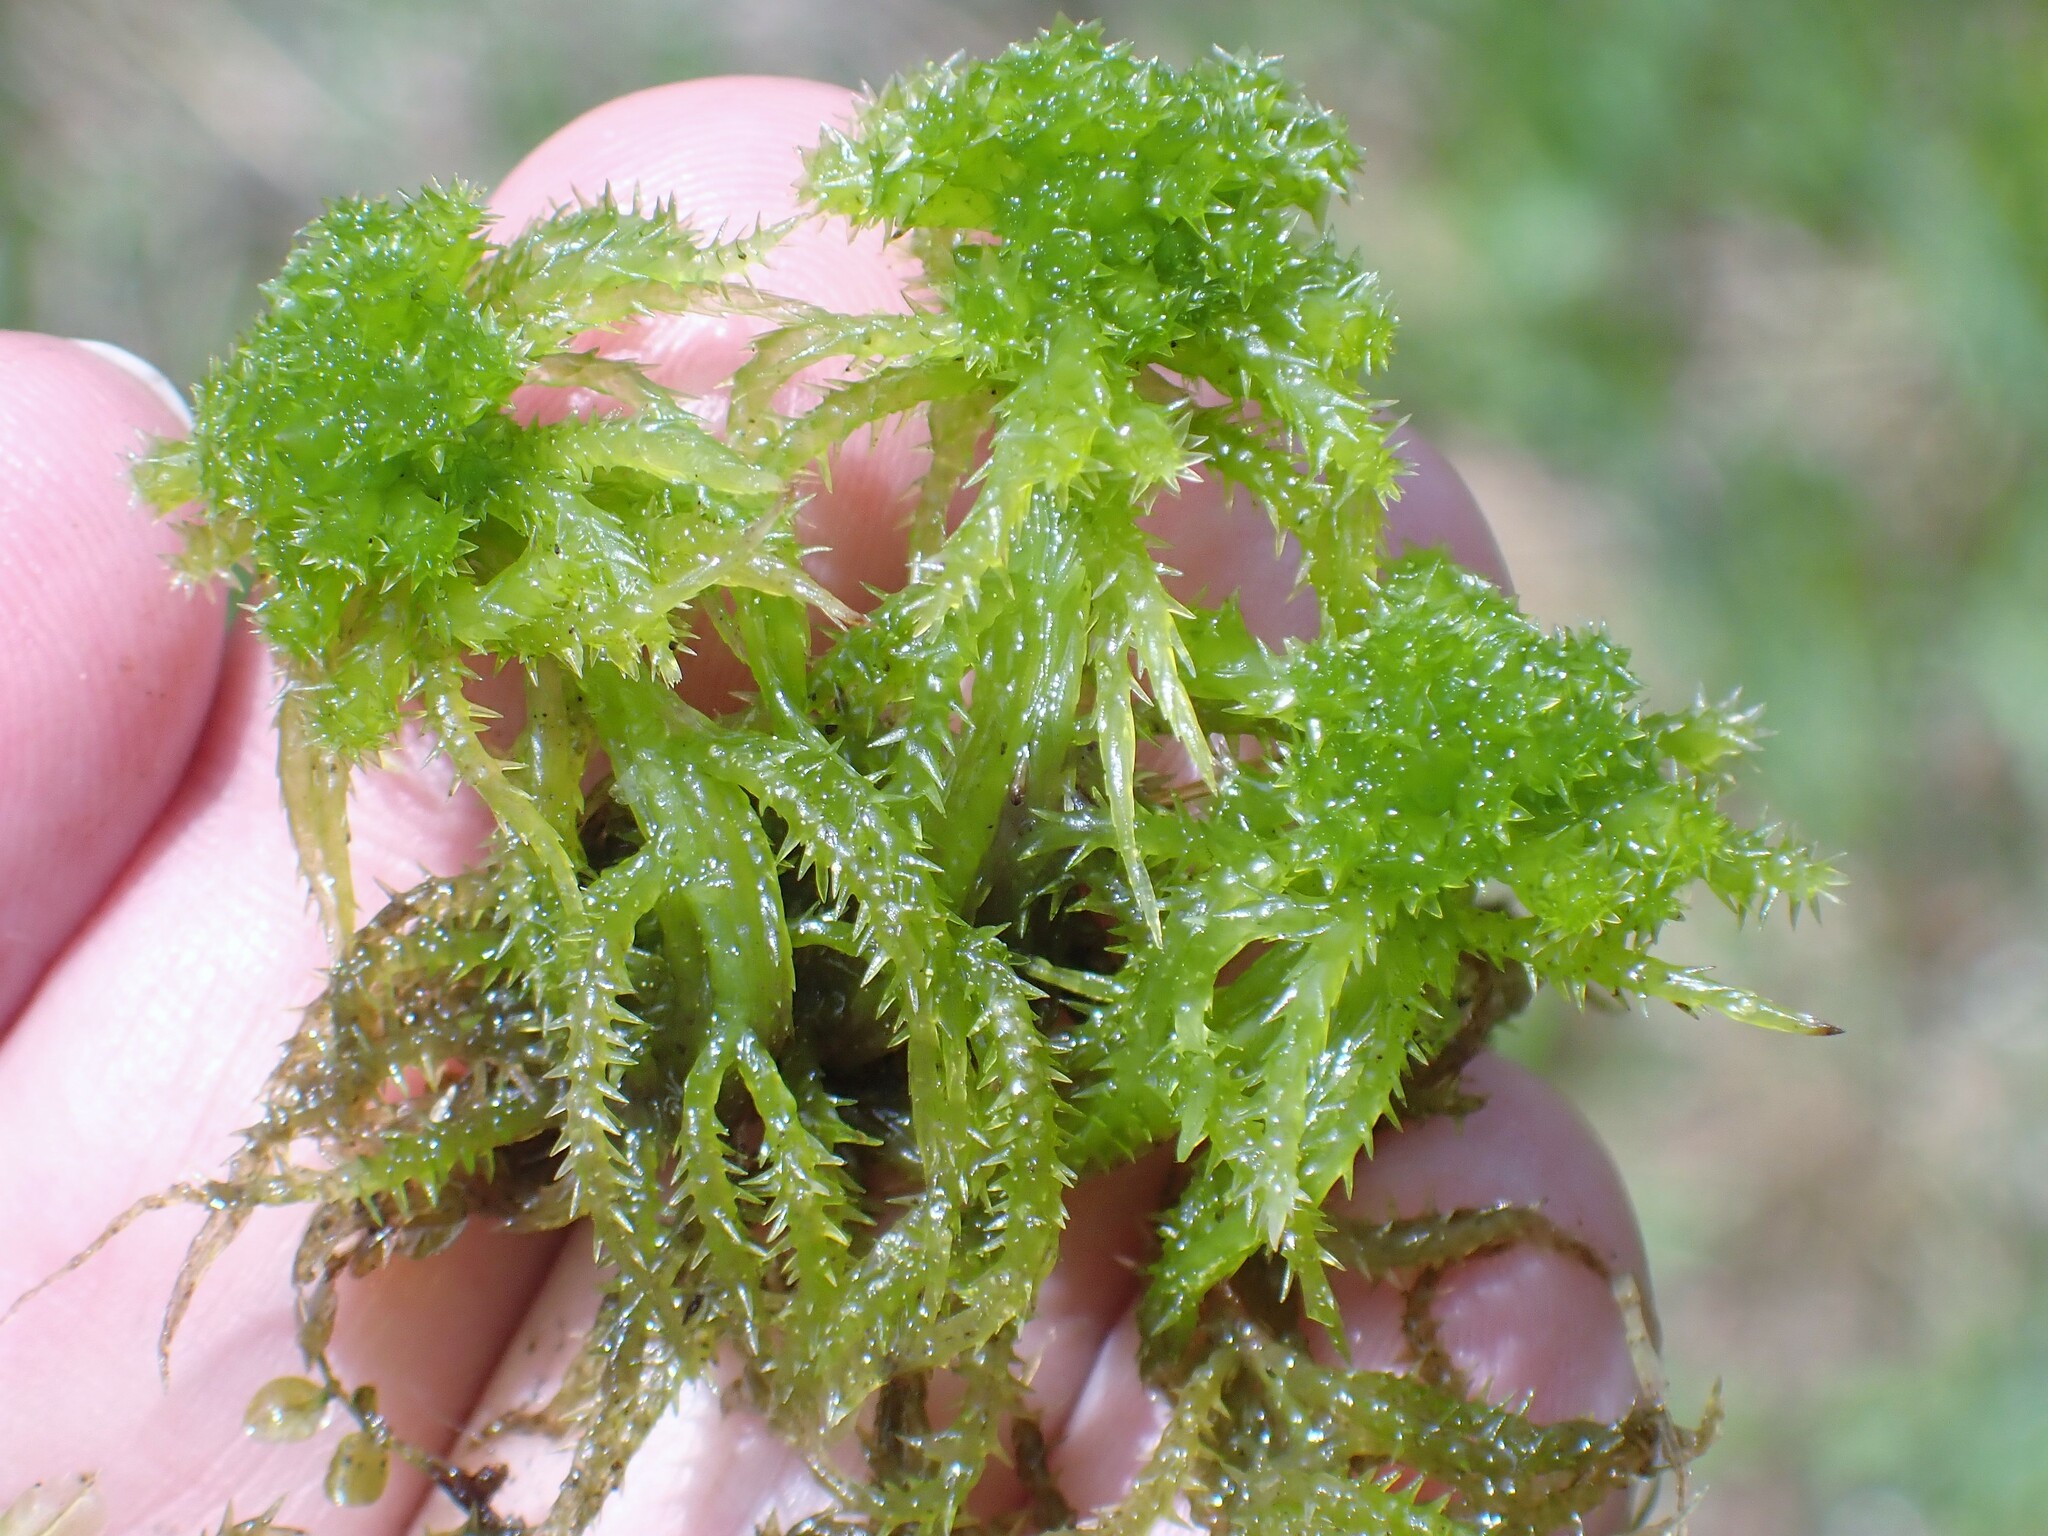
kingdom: Plantae
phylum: Bryophyta
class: Sphagnopsida
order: Sphagnales
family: Sphagnaceae
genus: Sphagnum
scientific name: Sphagnum squarrosum
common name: Shaggy peat moss
